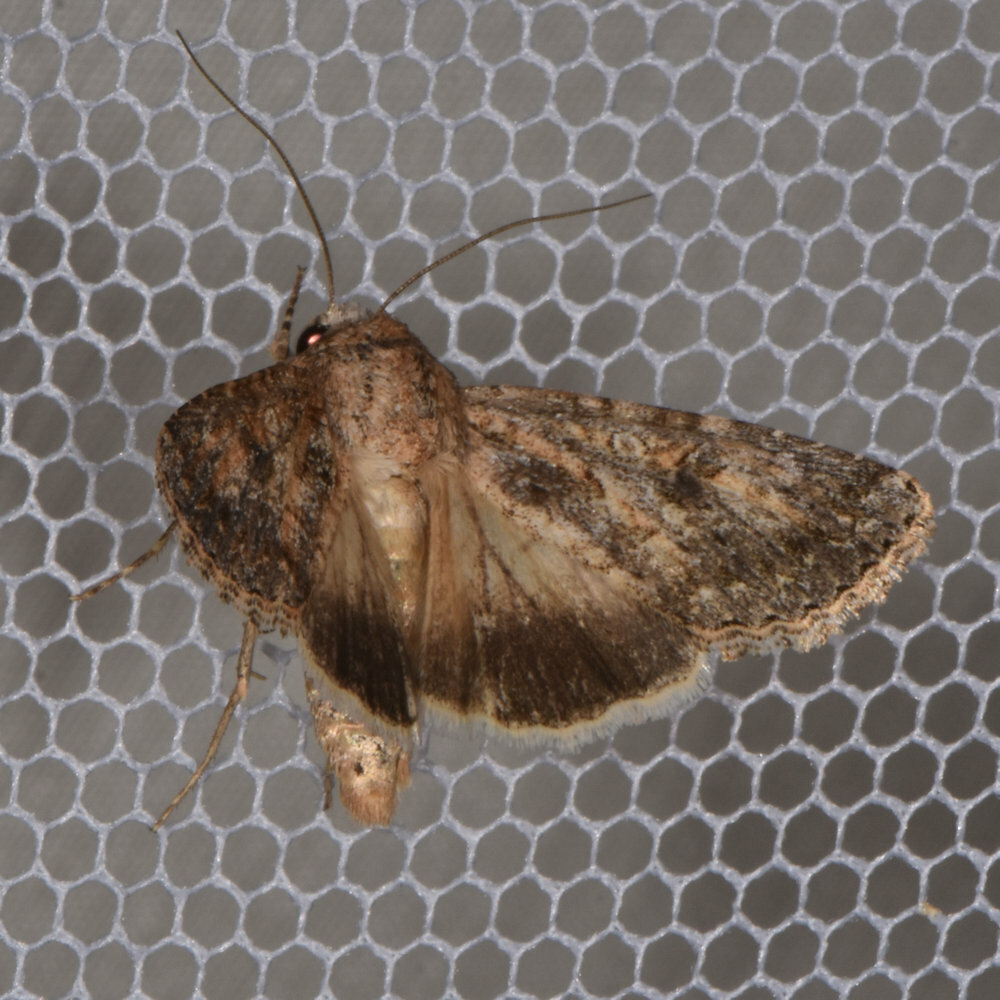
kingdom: Animalia
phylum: Arthropoda
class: Insecta
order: Lepidoptera
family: Noctuidae
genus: Cardepia
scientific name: Cardepia definiens
